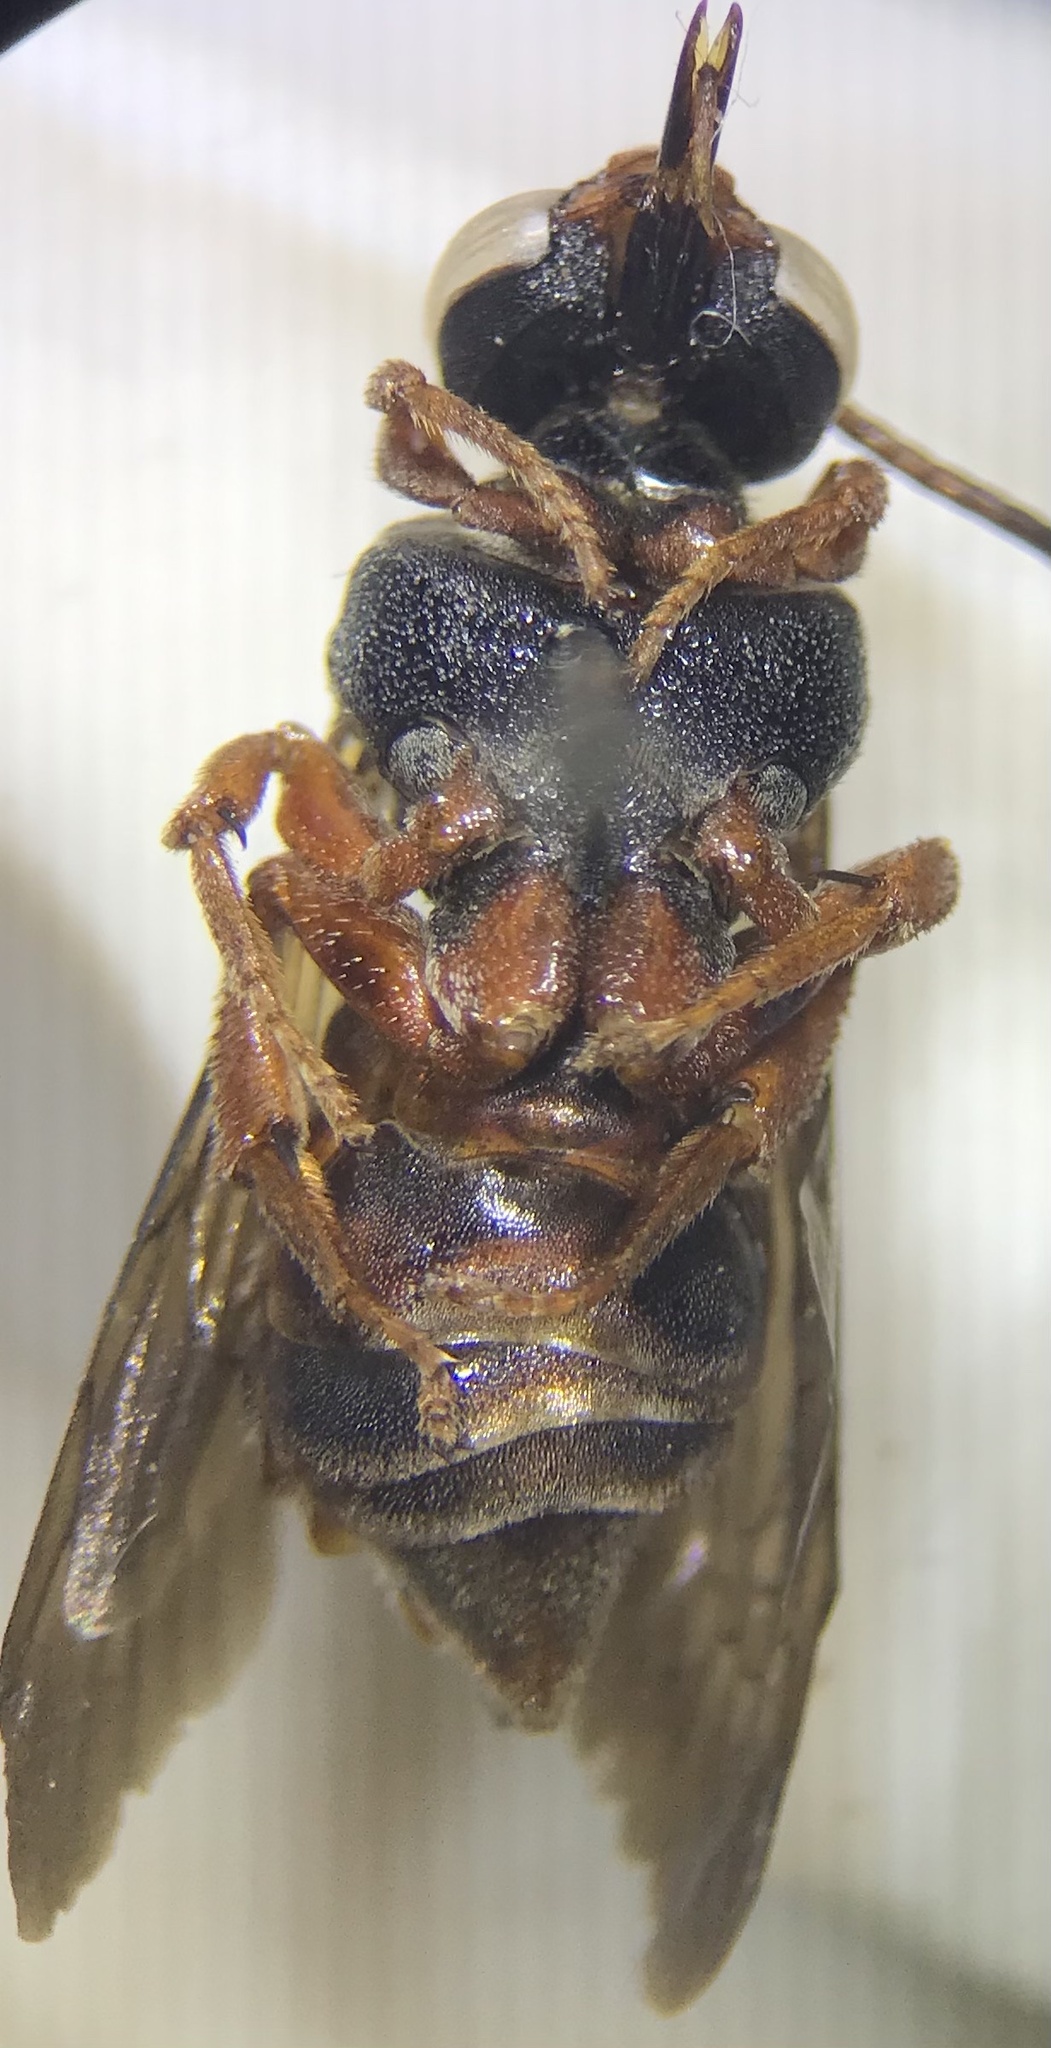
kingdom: Animalia
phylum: Arthropoda
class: Insecta
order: Hymenoptera
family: Apidae
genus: Triepeolus
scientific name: Triepeolus distinctus
